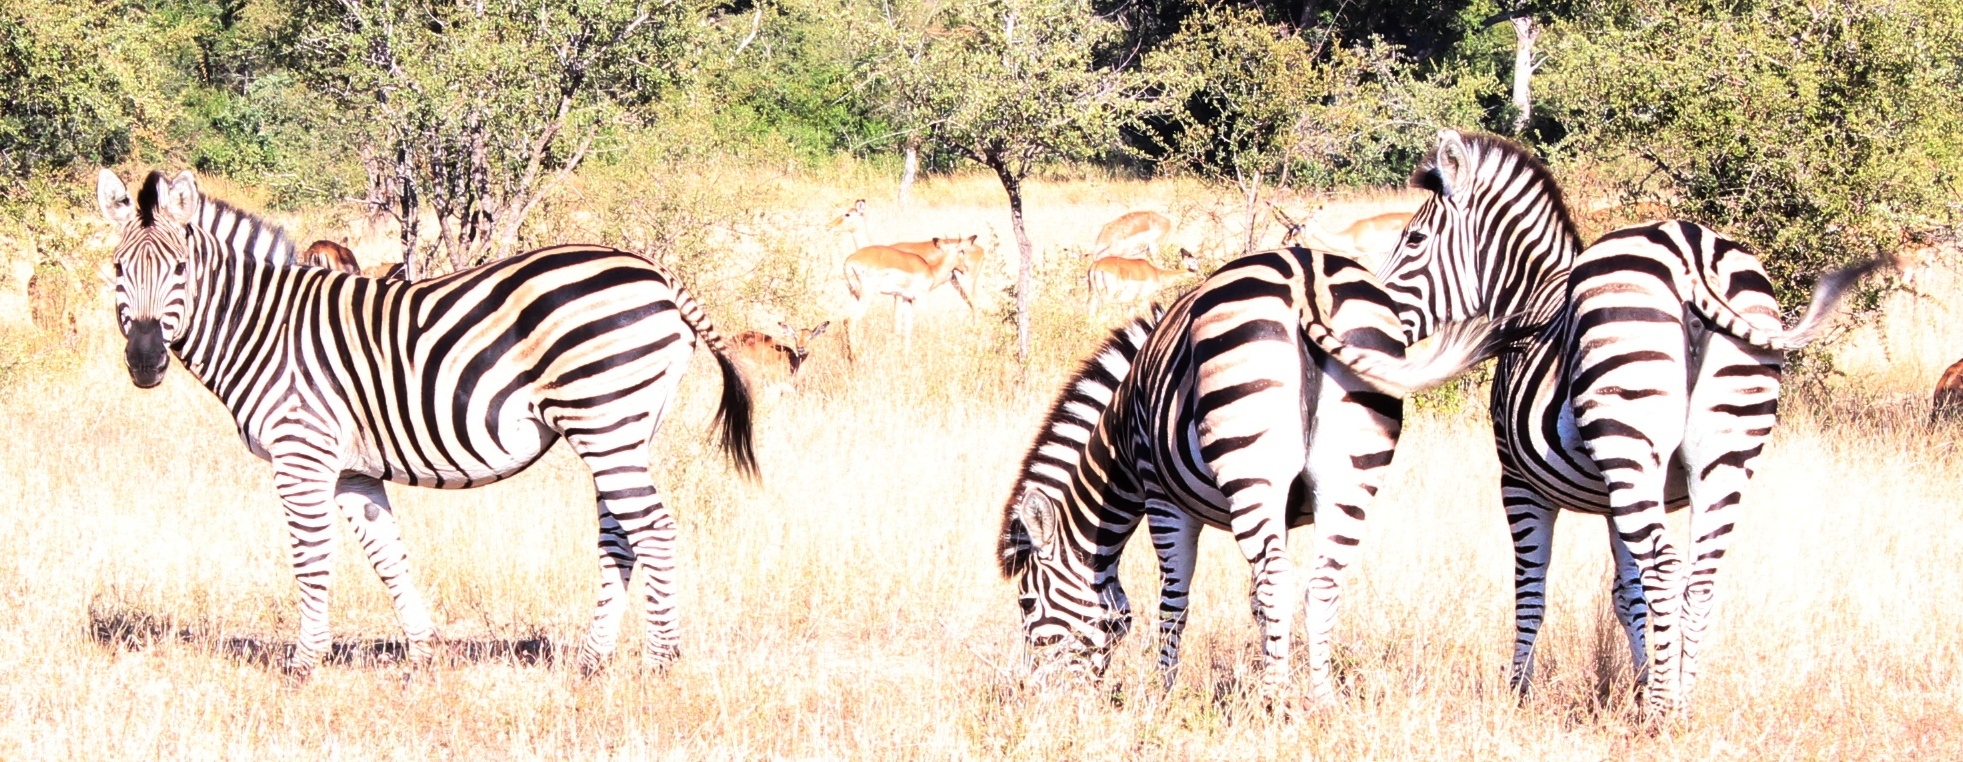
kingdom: Animalia
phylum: Chordata
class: Mammalia
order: Perissodactyla
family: Equidae
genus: Equus
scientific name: Equus quagga
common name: Plains zebra
